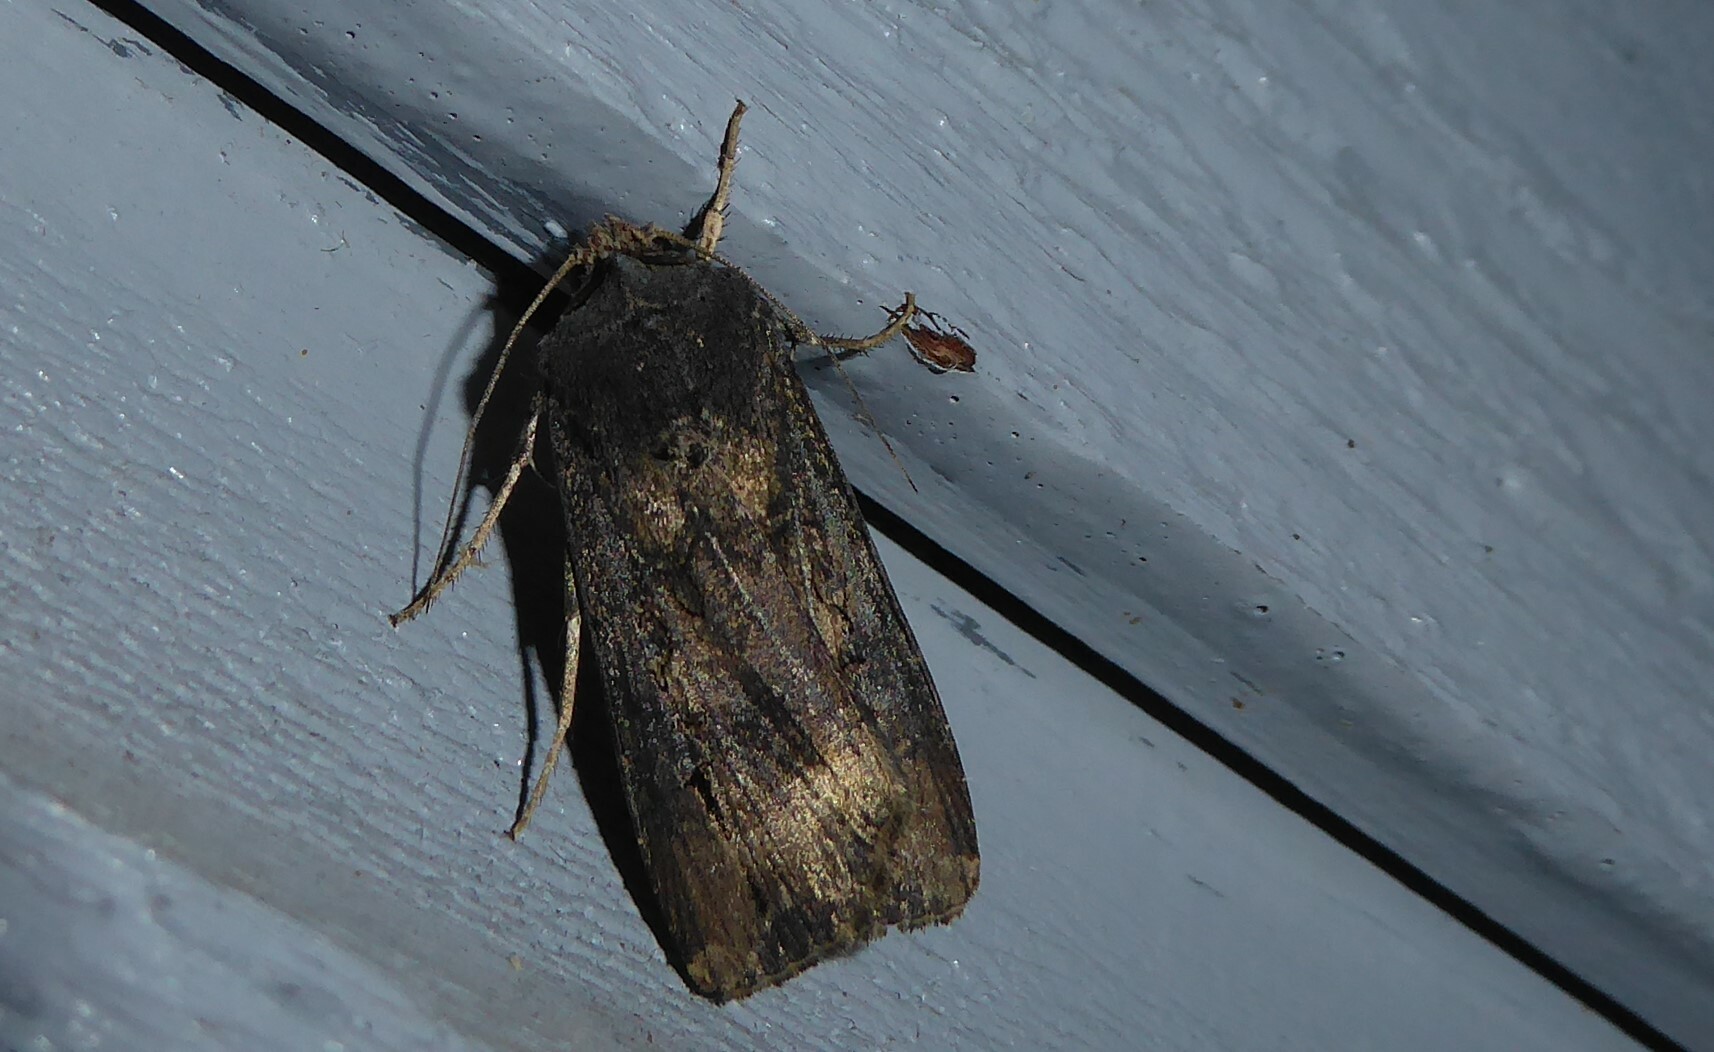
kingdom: Animalia
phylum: Arthropoda
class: Insecta
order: Lepidoptera
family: Noctuidae
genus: Agrotis
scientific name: Agrotis ipsilon
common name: Dark sword-grass
